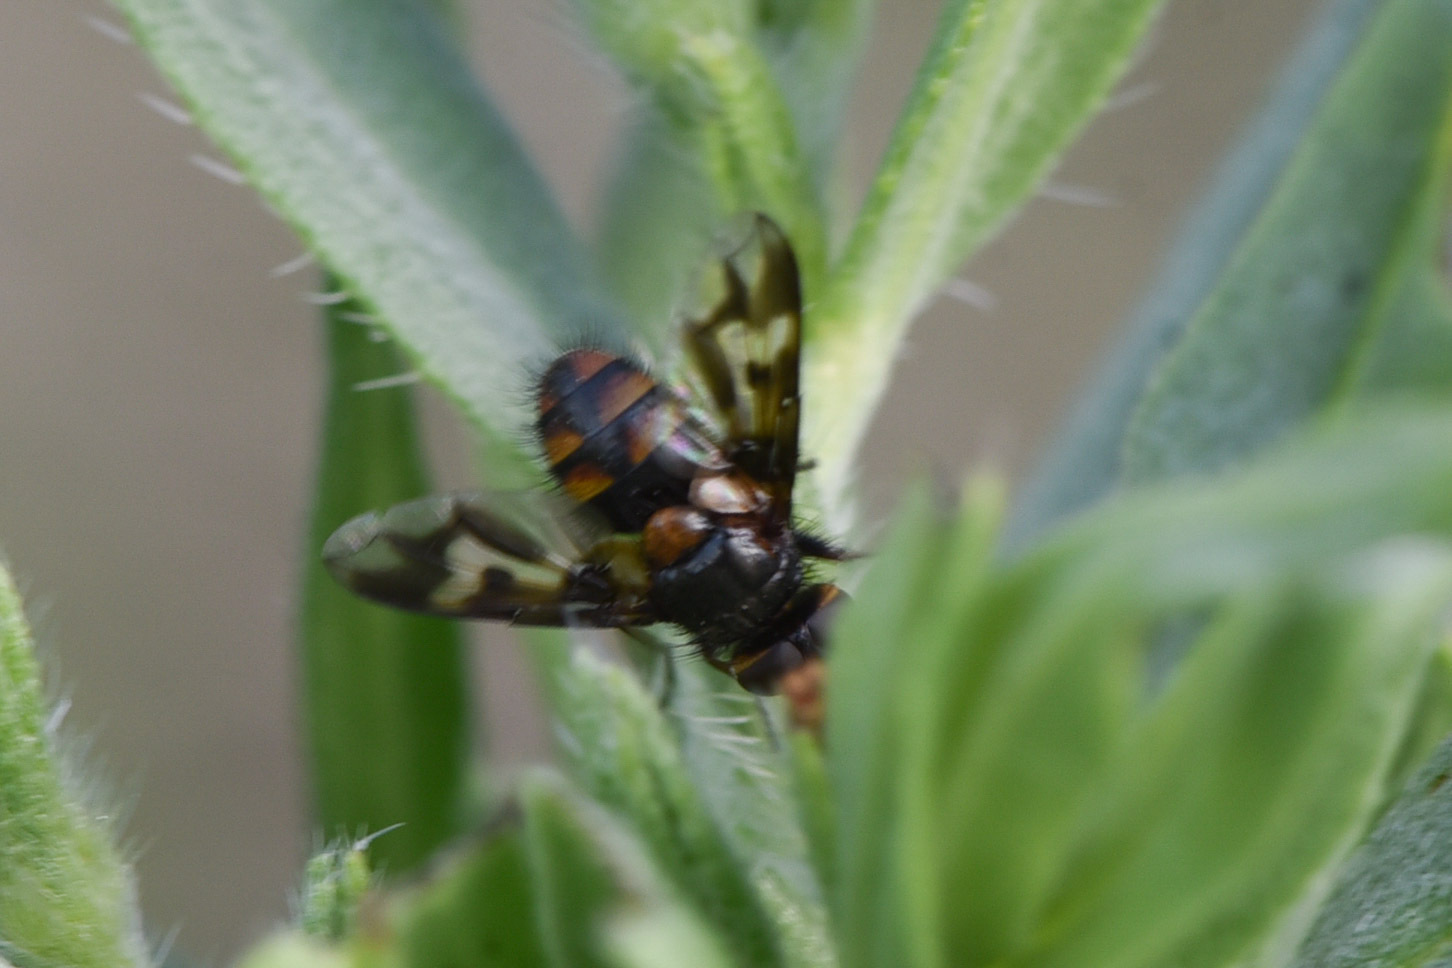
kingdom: Animalia
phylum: Arthropoda
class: Insecta
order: Diptera
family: Tachinidae
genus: Oestrophasia
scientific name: Oestrophasia clausa
